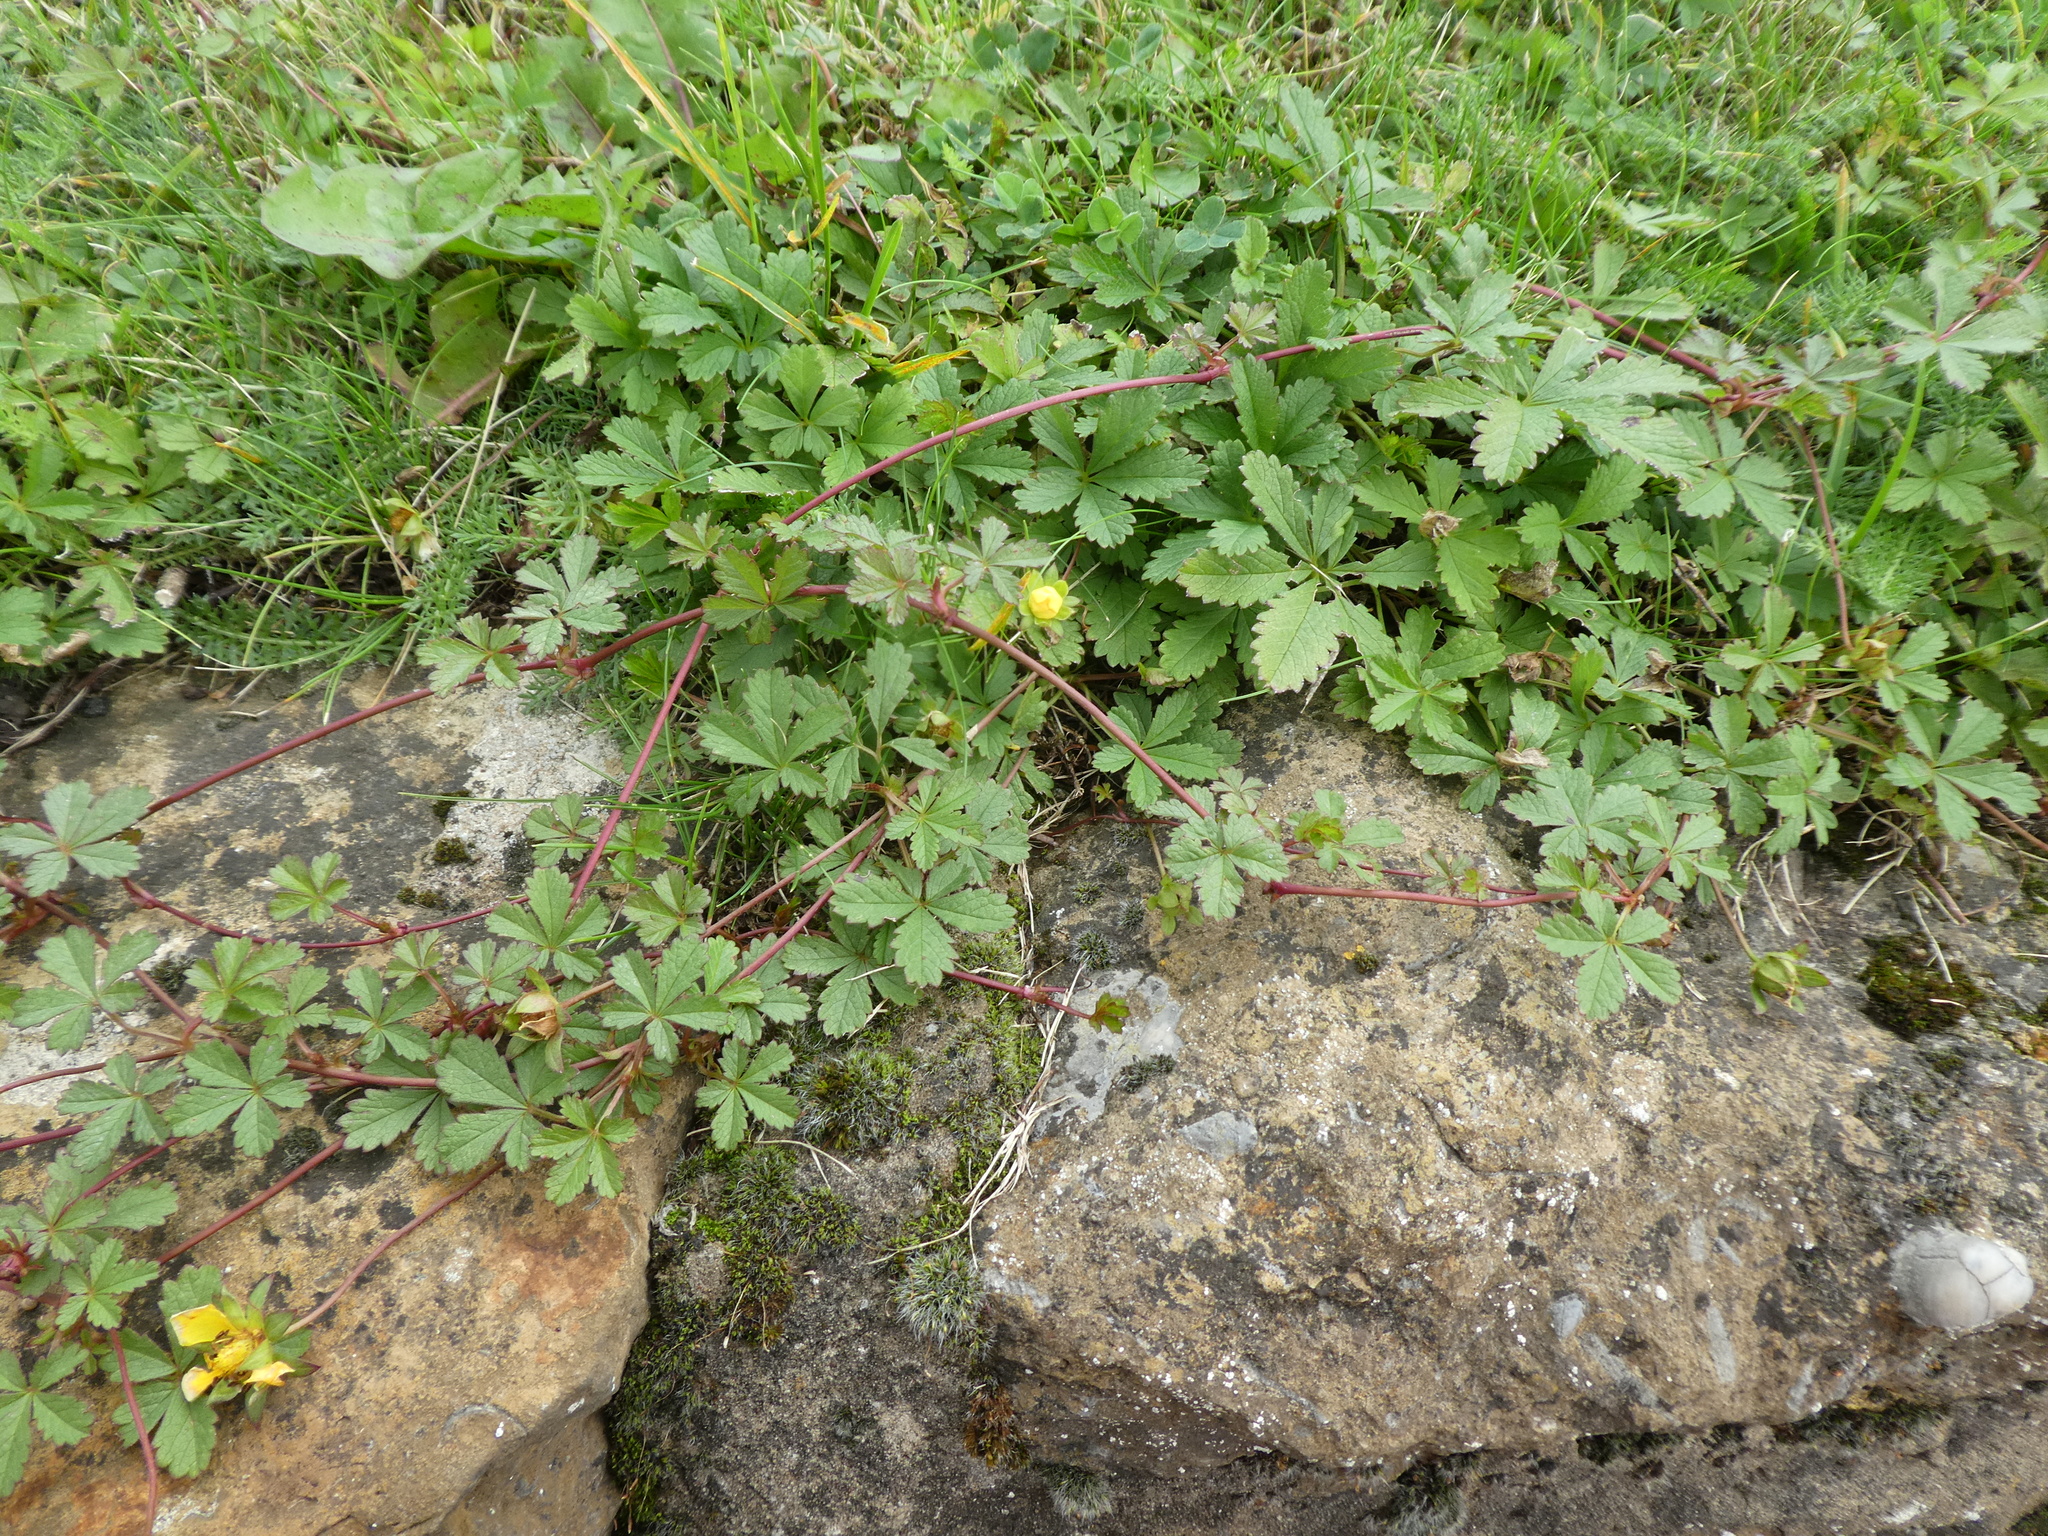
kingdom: Plantae
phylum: Tracheophyta
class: Magnoliopsida
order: Rosales
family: Rosaceae
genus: Potentilla
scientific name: Potentilla reptans
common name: Creeping cinquefoil
